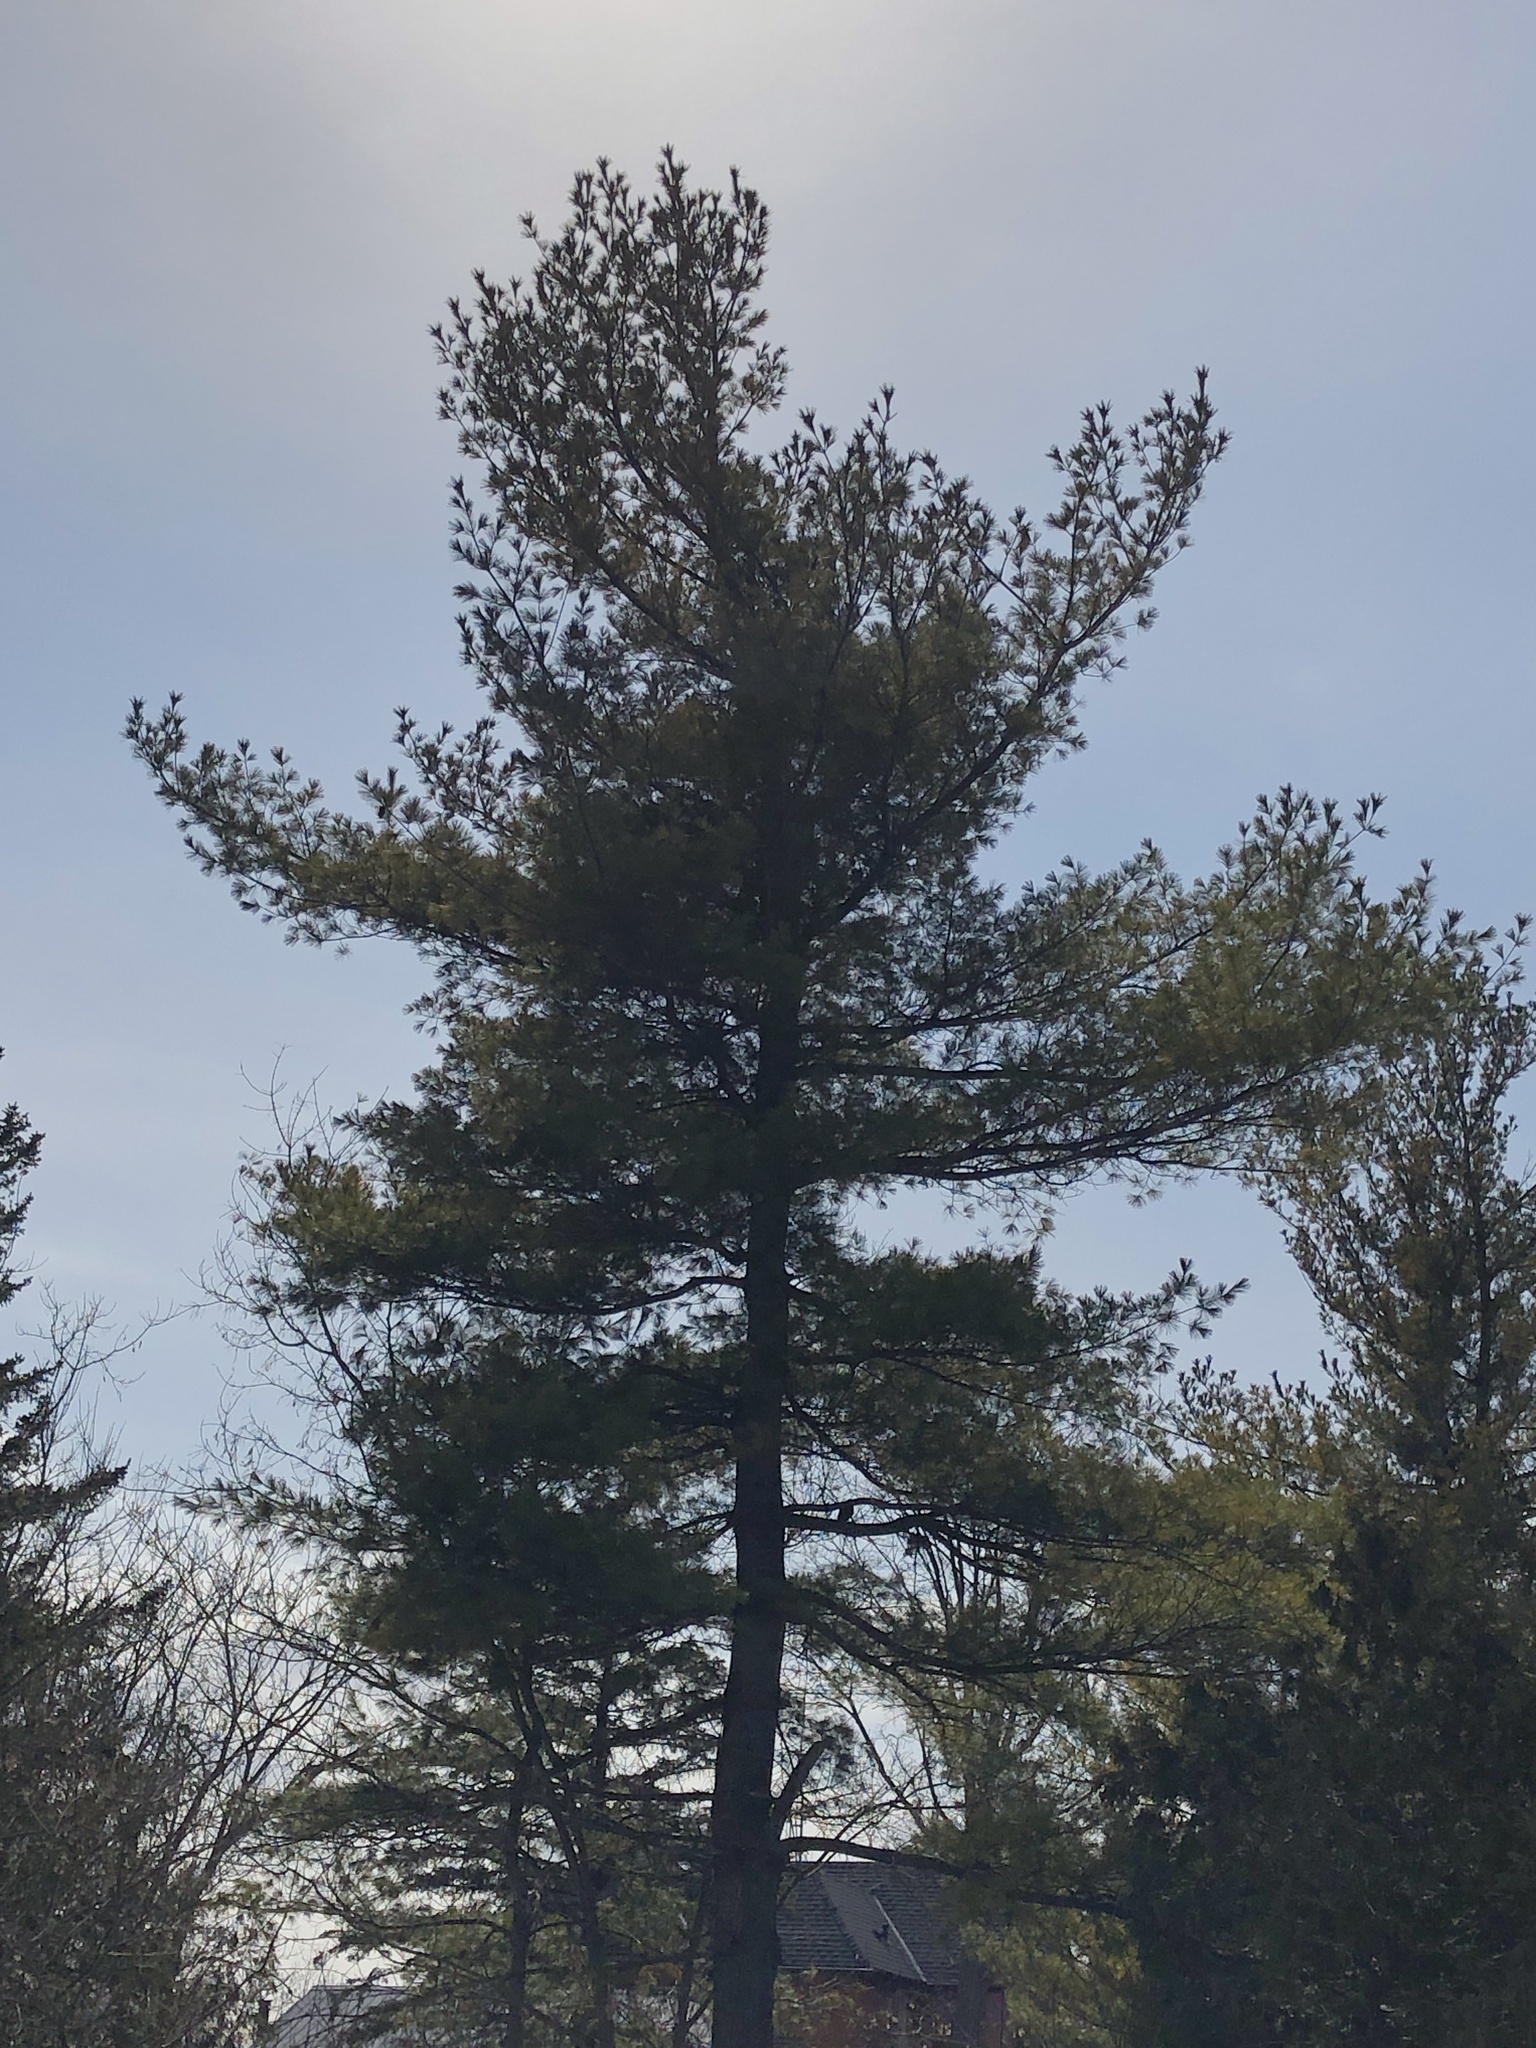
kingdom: Plantae
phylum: Tracheophyta
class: Pinopsida
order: Pinales
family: Pinaceae
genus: Pinus
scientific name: Pinus strobus
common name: Weymouth pine
